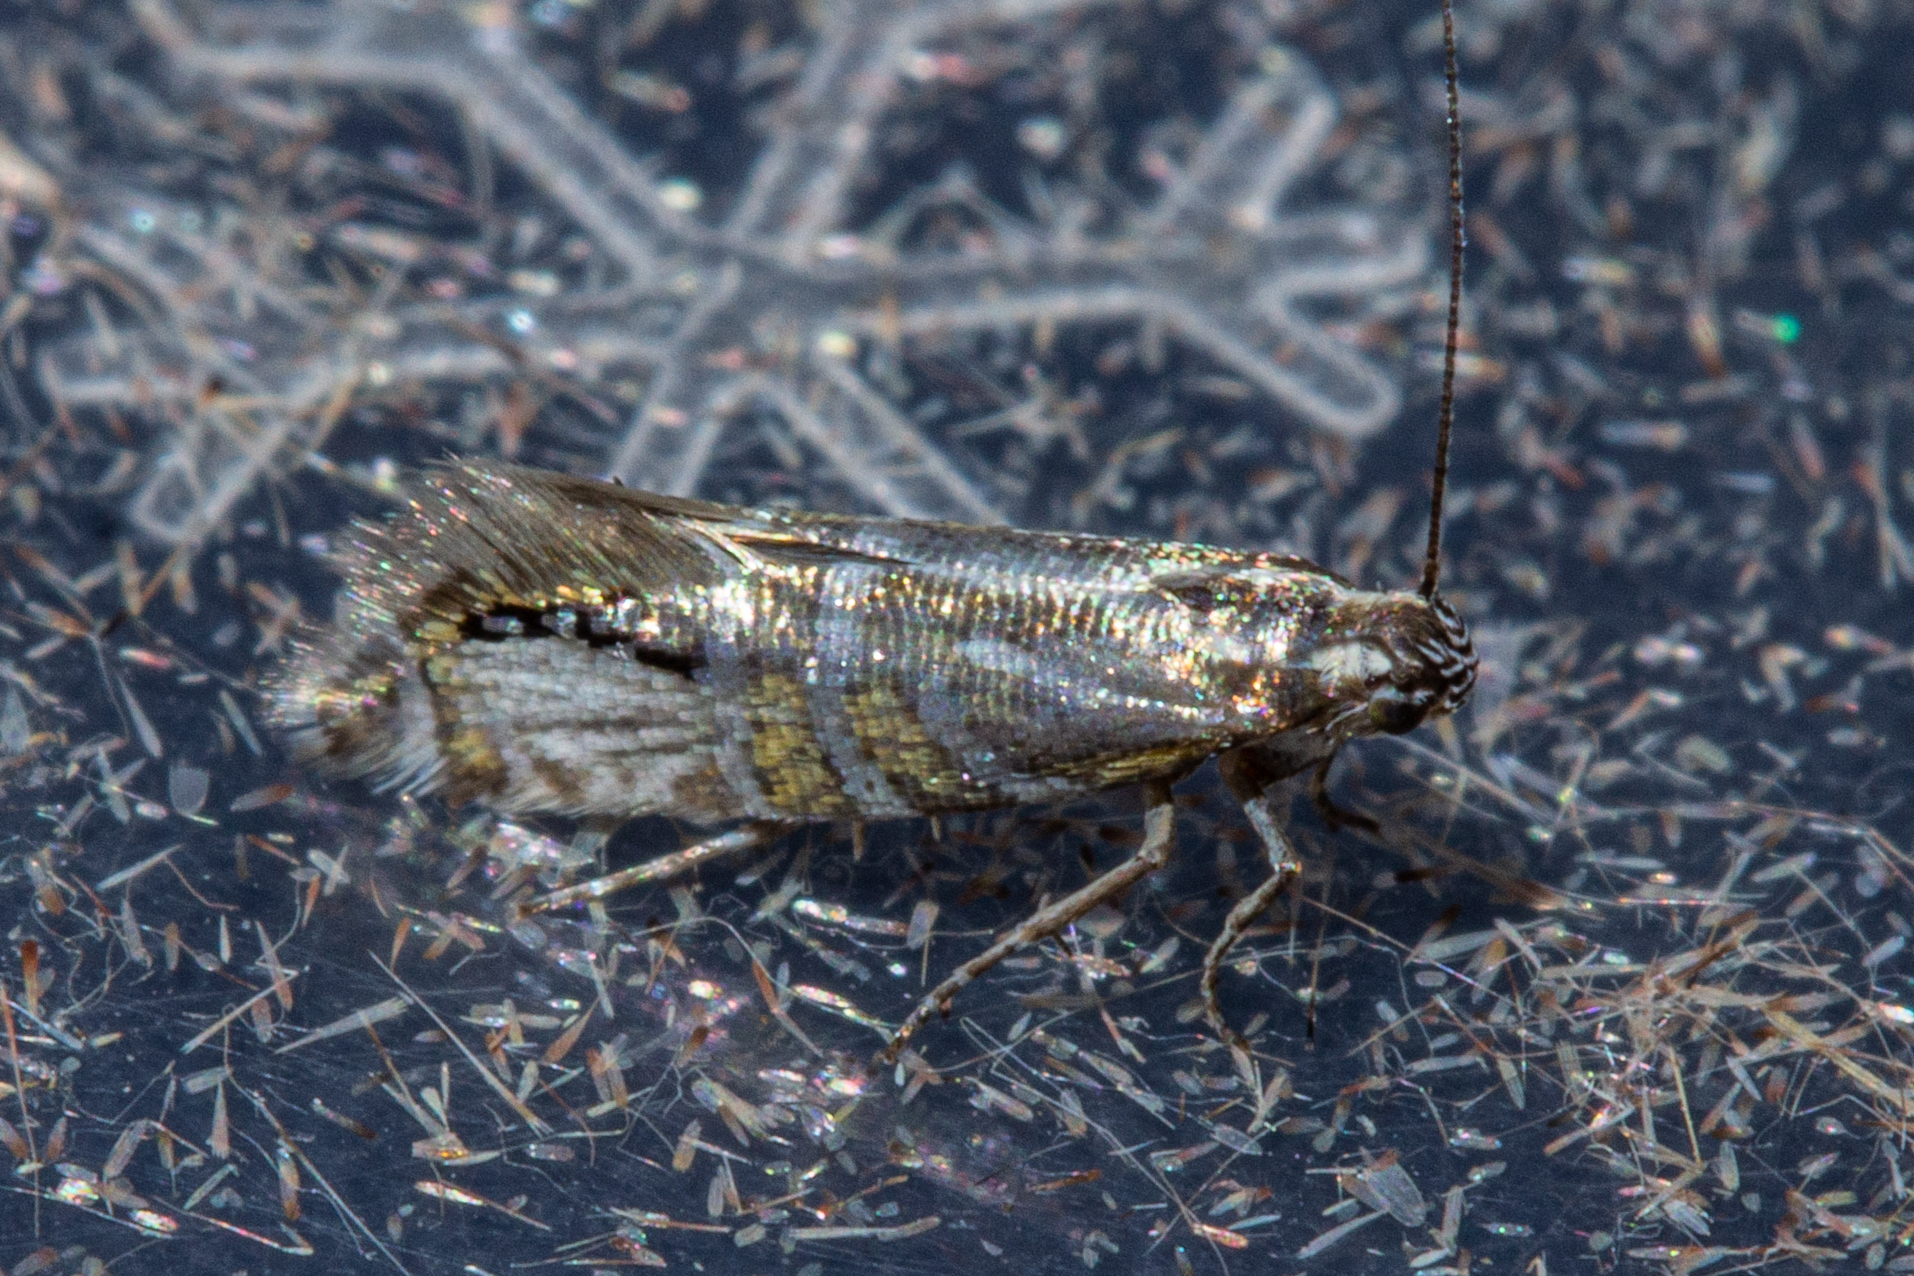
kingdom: Animalia
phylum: Arthropoda
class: Insecta
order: Lepidoptera
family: Glyphipterigidae
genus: Glyphipterix
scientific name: Glyphipterix triselena
